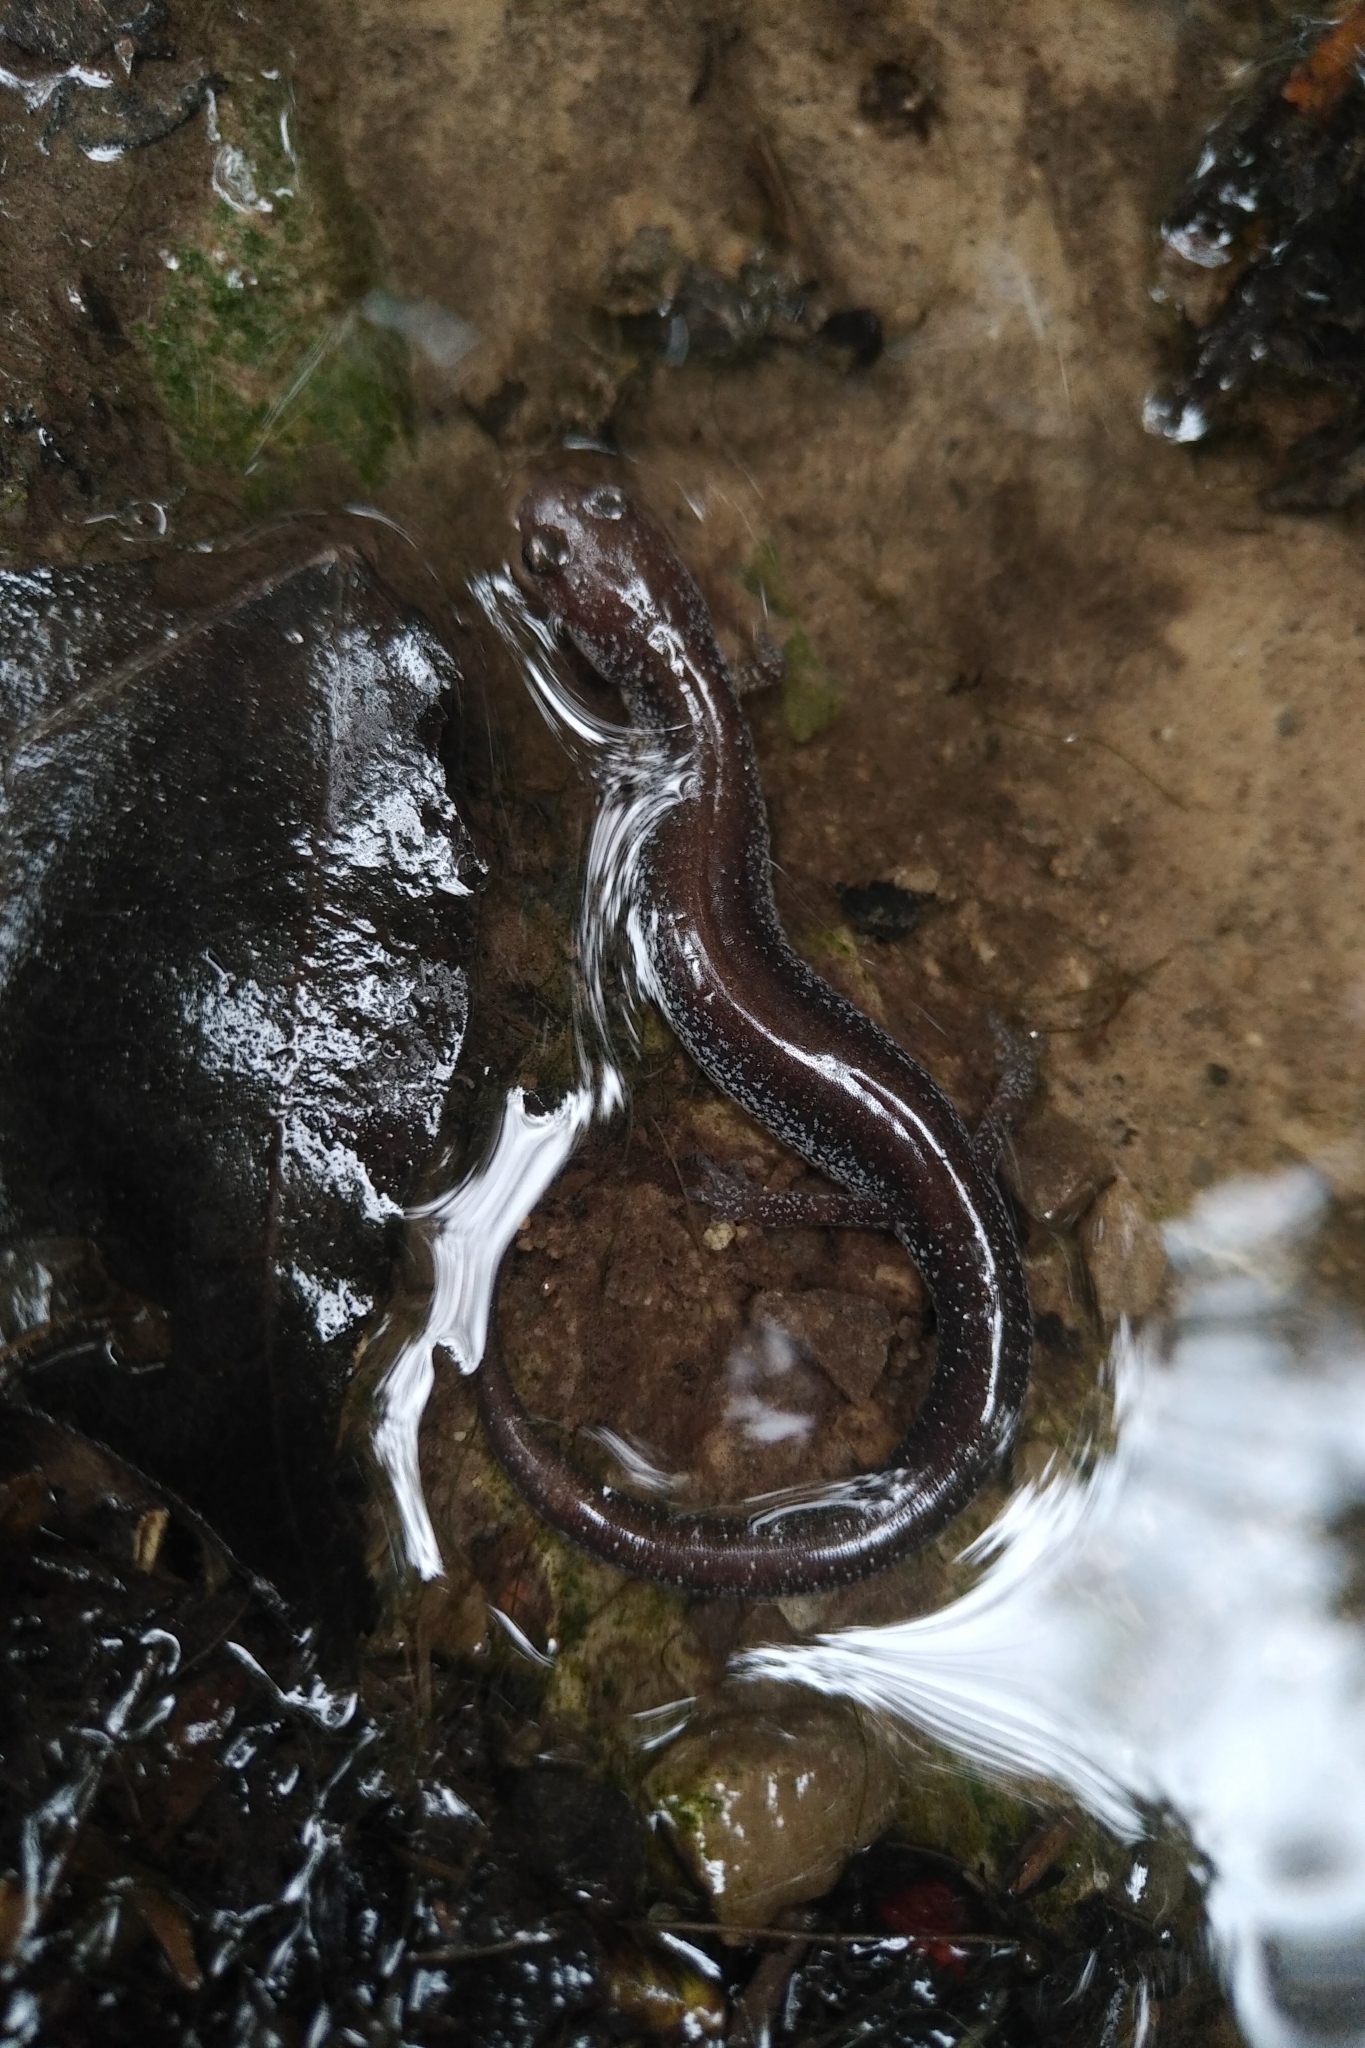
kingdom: Animalia
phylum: Chordata
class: Amphibia
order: Caudata
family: Plethodontidae
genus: Plethodon
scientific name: Plethodon cinereus
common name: Redback salamander
